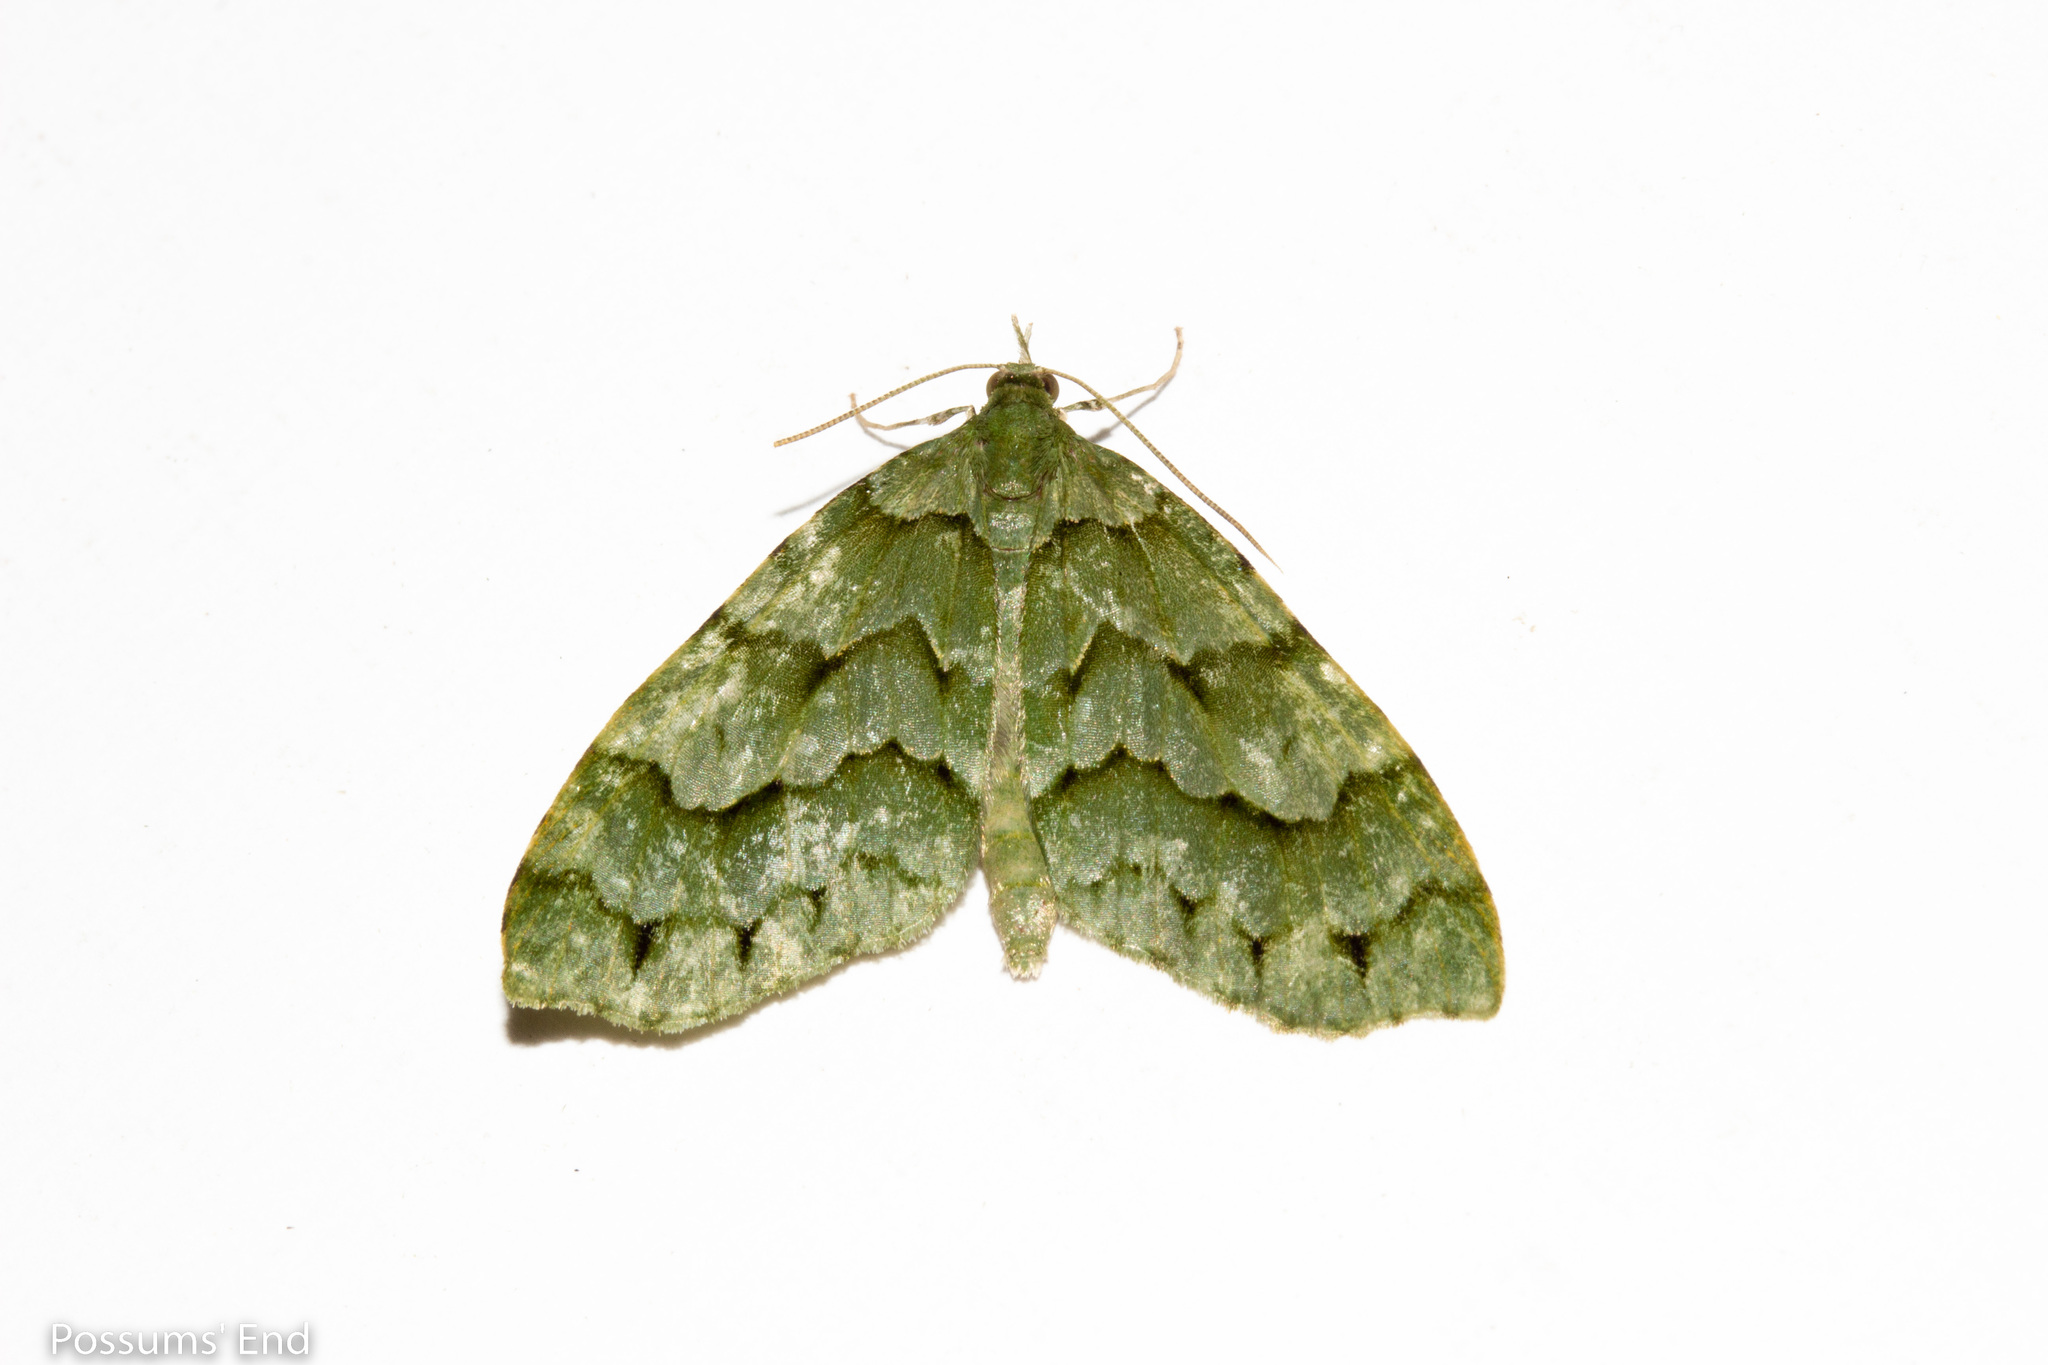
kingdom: Animalia
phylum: Arthropoda
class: Insecta
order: Lepidoptera
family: Geometridae
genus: Tatosoma
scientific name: Tatosoma lestevata
